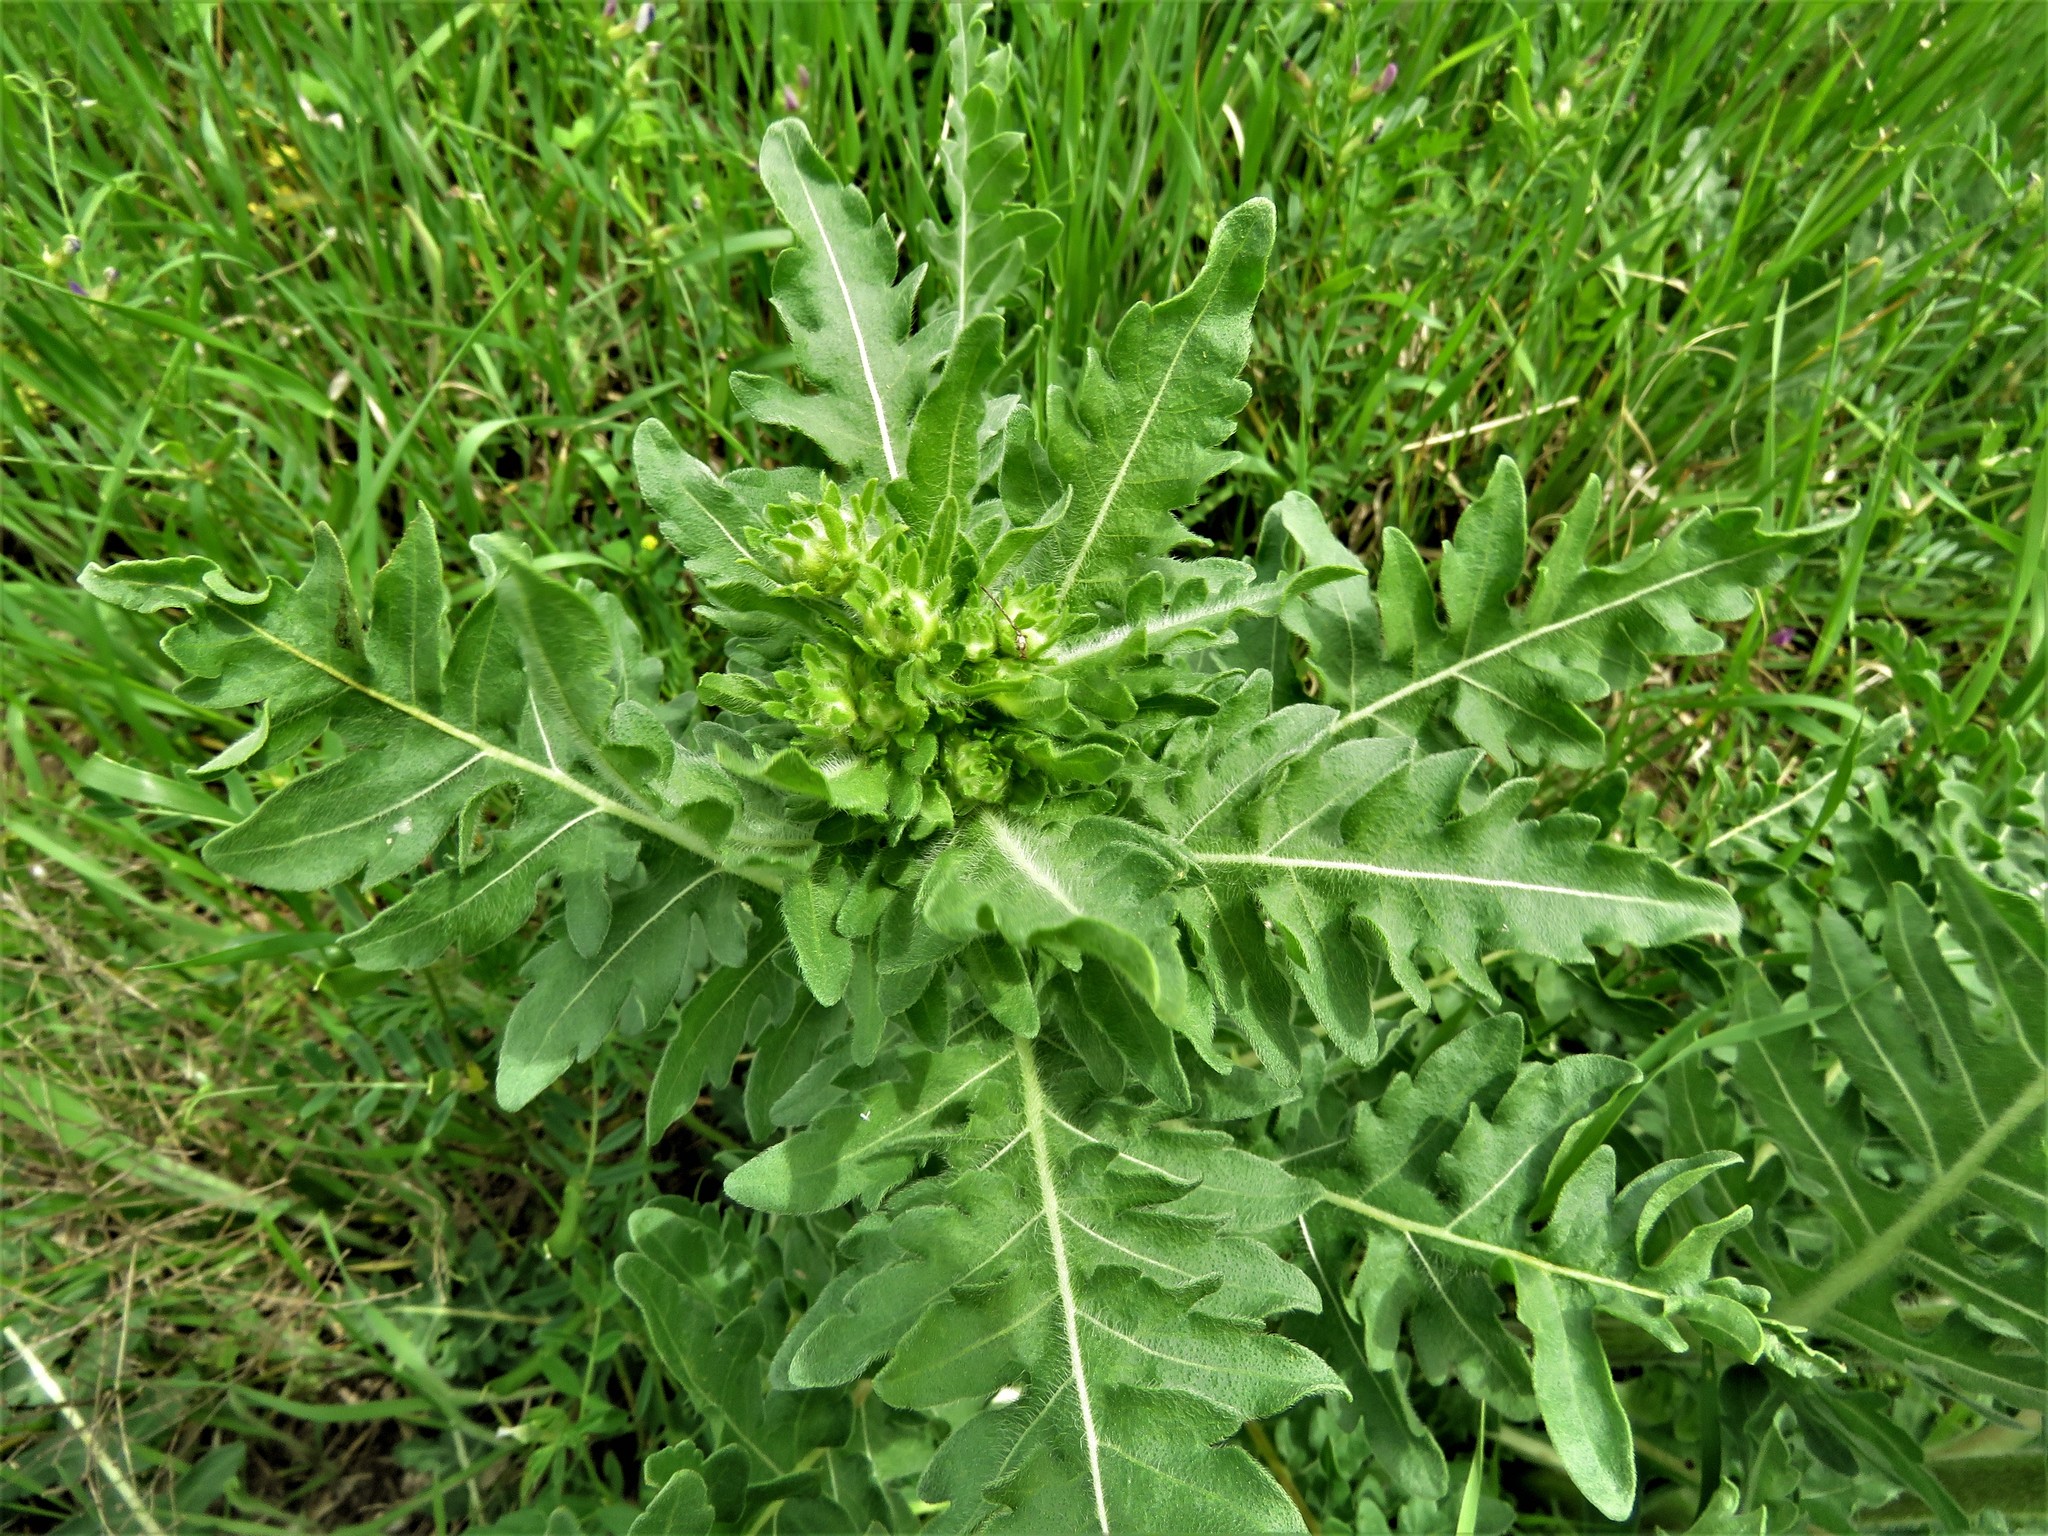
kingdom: Plantae
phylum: Tracheophyta
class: Magnoliopsida
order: Asterales
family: Asteraceae
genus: Engelmannia
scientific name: Engelmannia peristenia
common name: Engelmann's daisy
